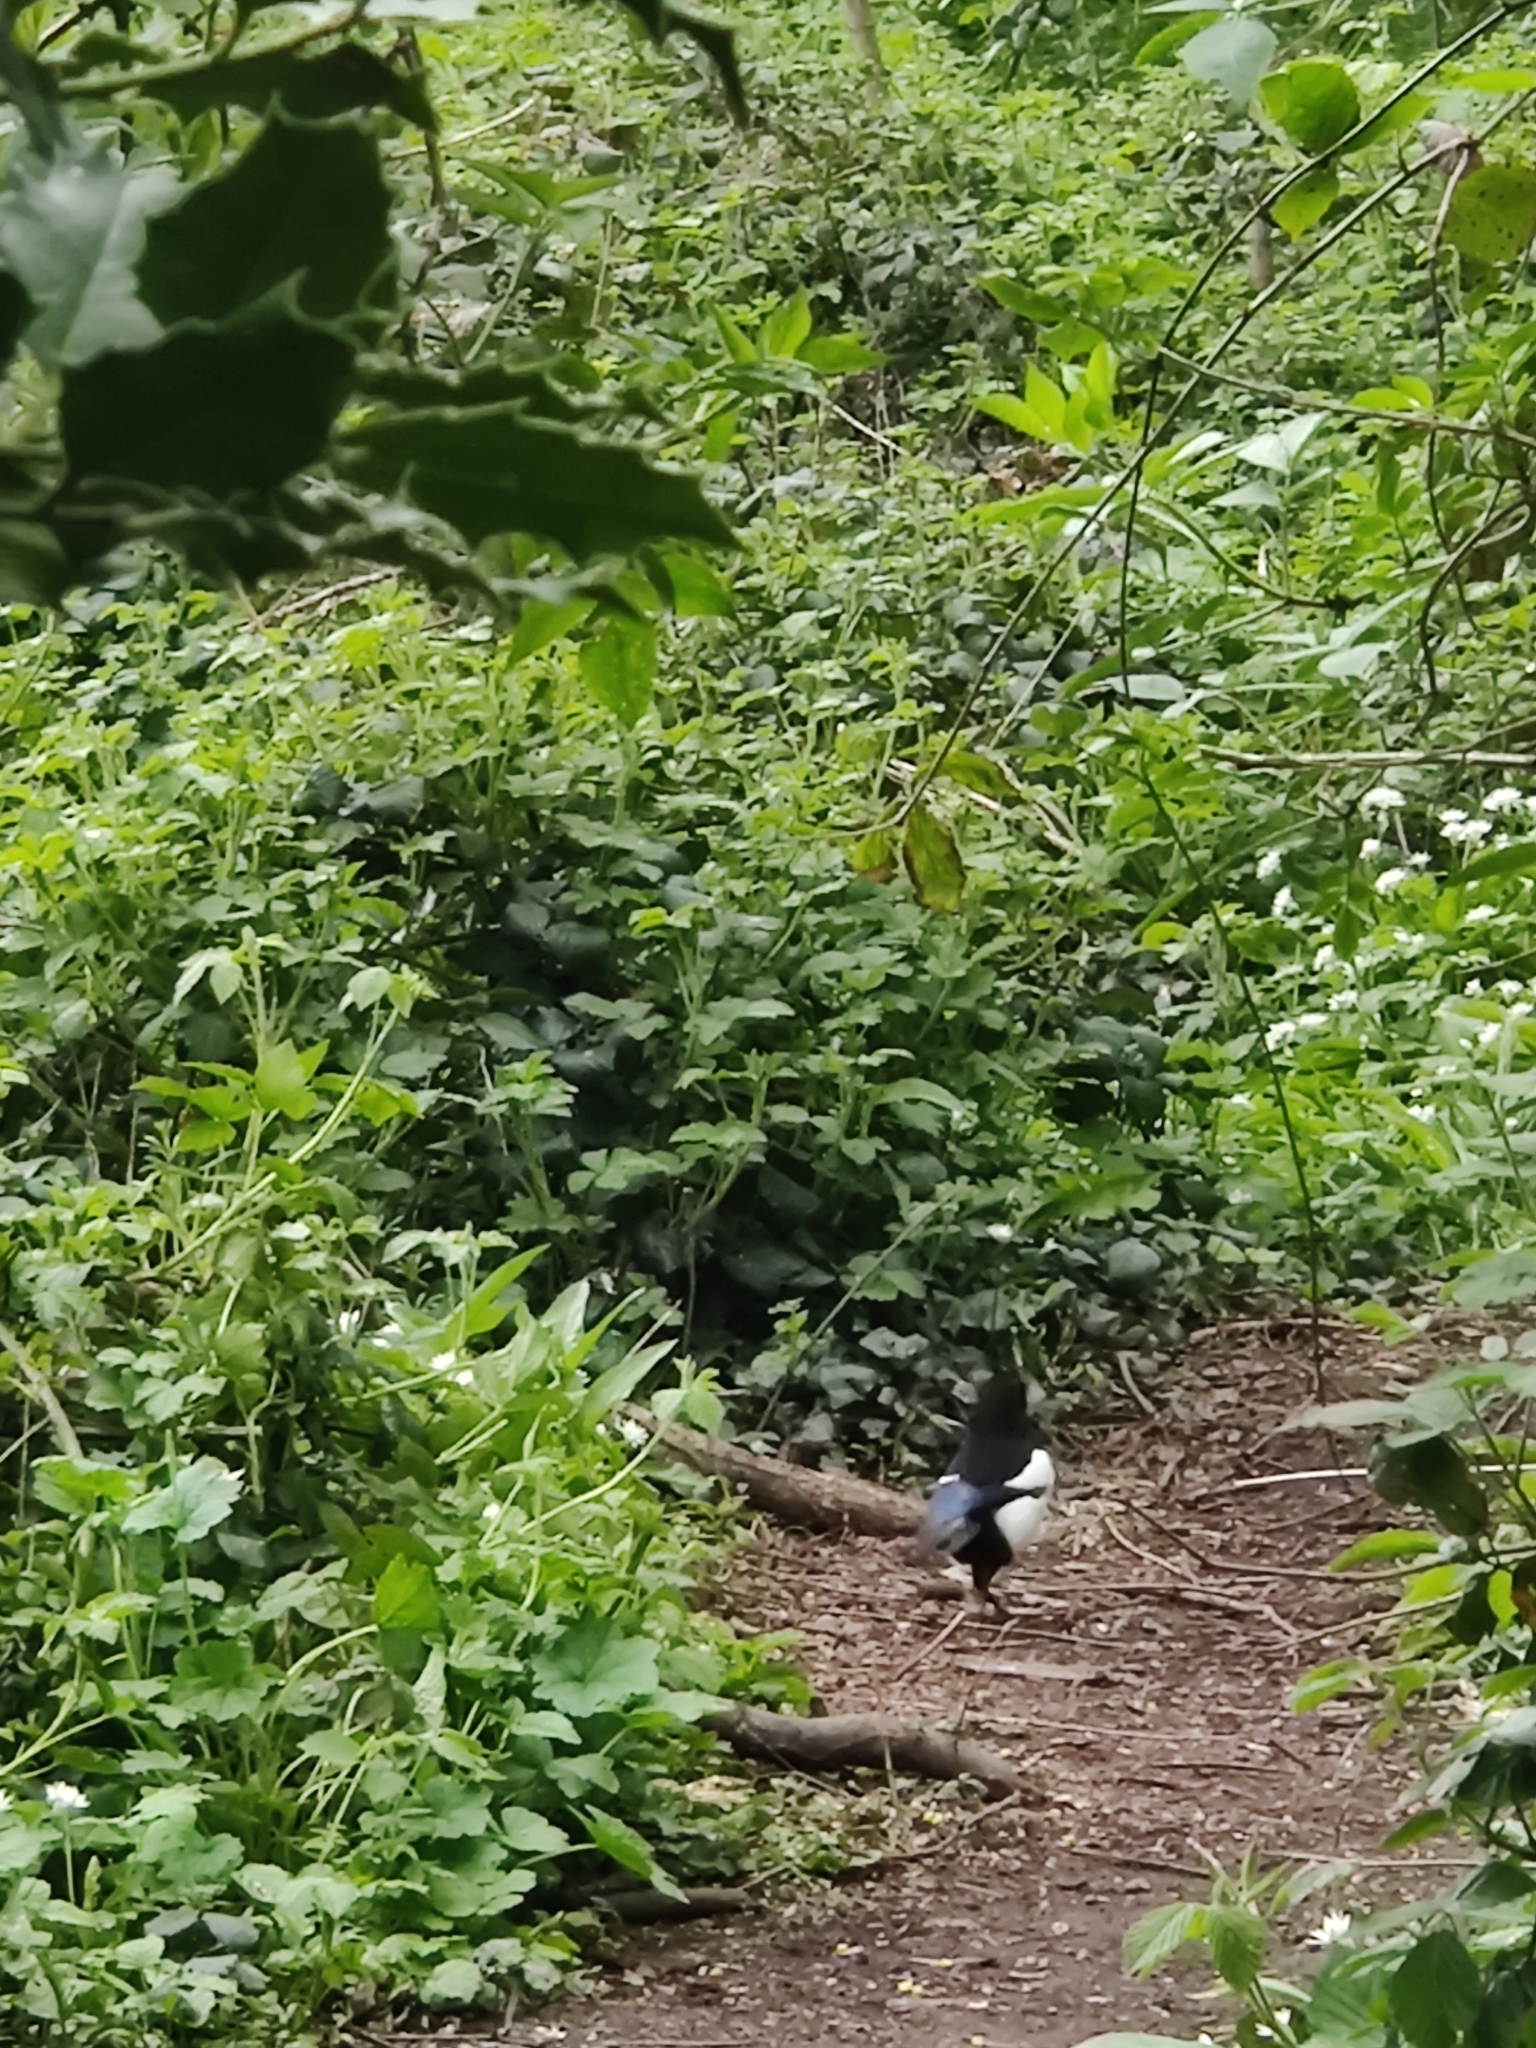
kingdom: Animalia
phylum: Chordata
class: Aves
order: Passeriformes
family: Corvidae
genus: Pica
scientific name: Pica pica
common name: Eurasian magpie
